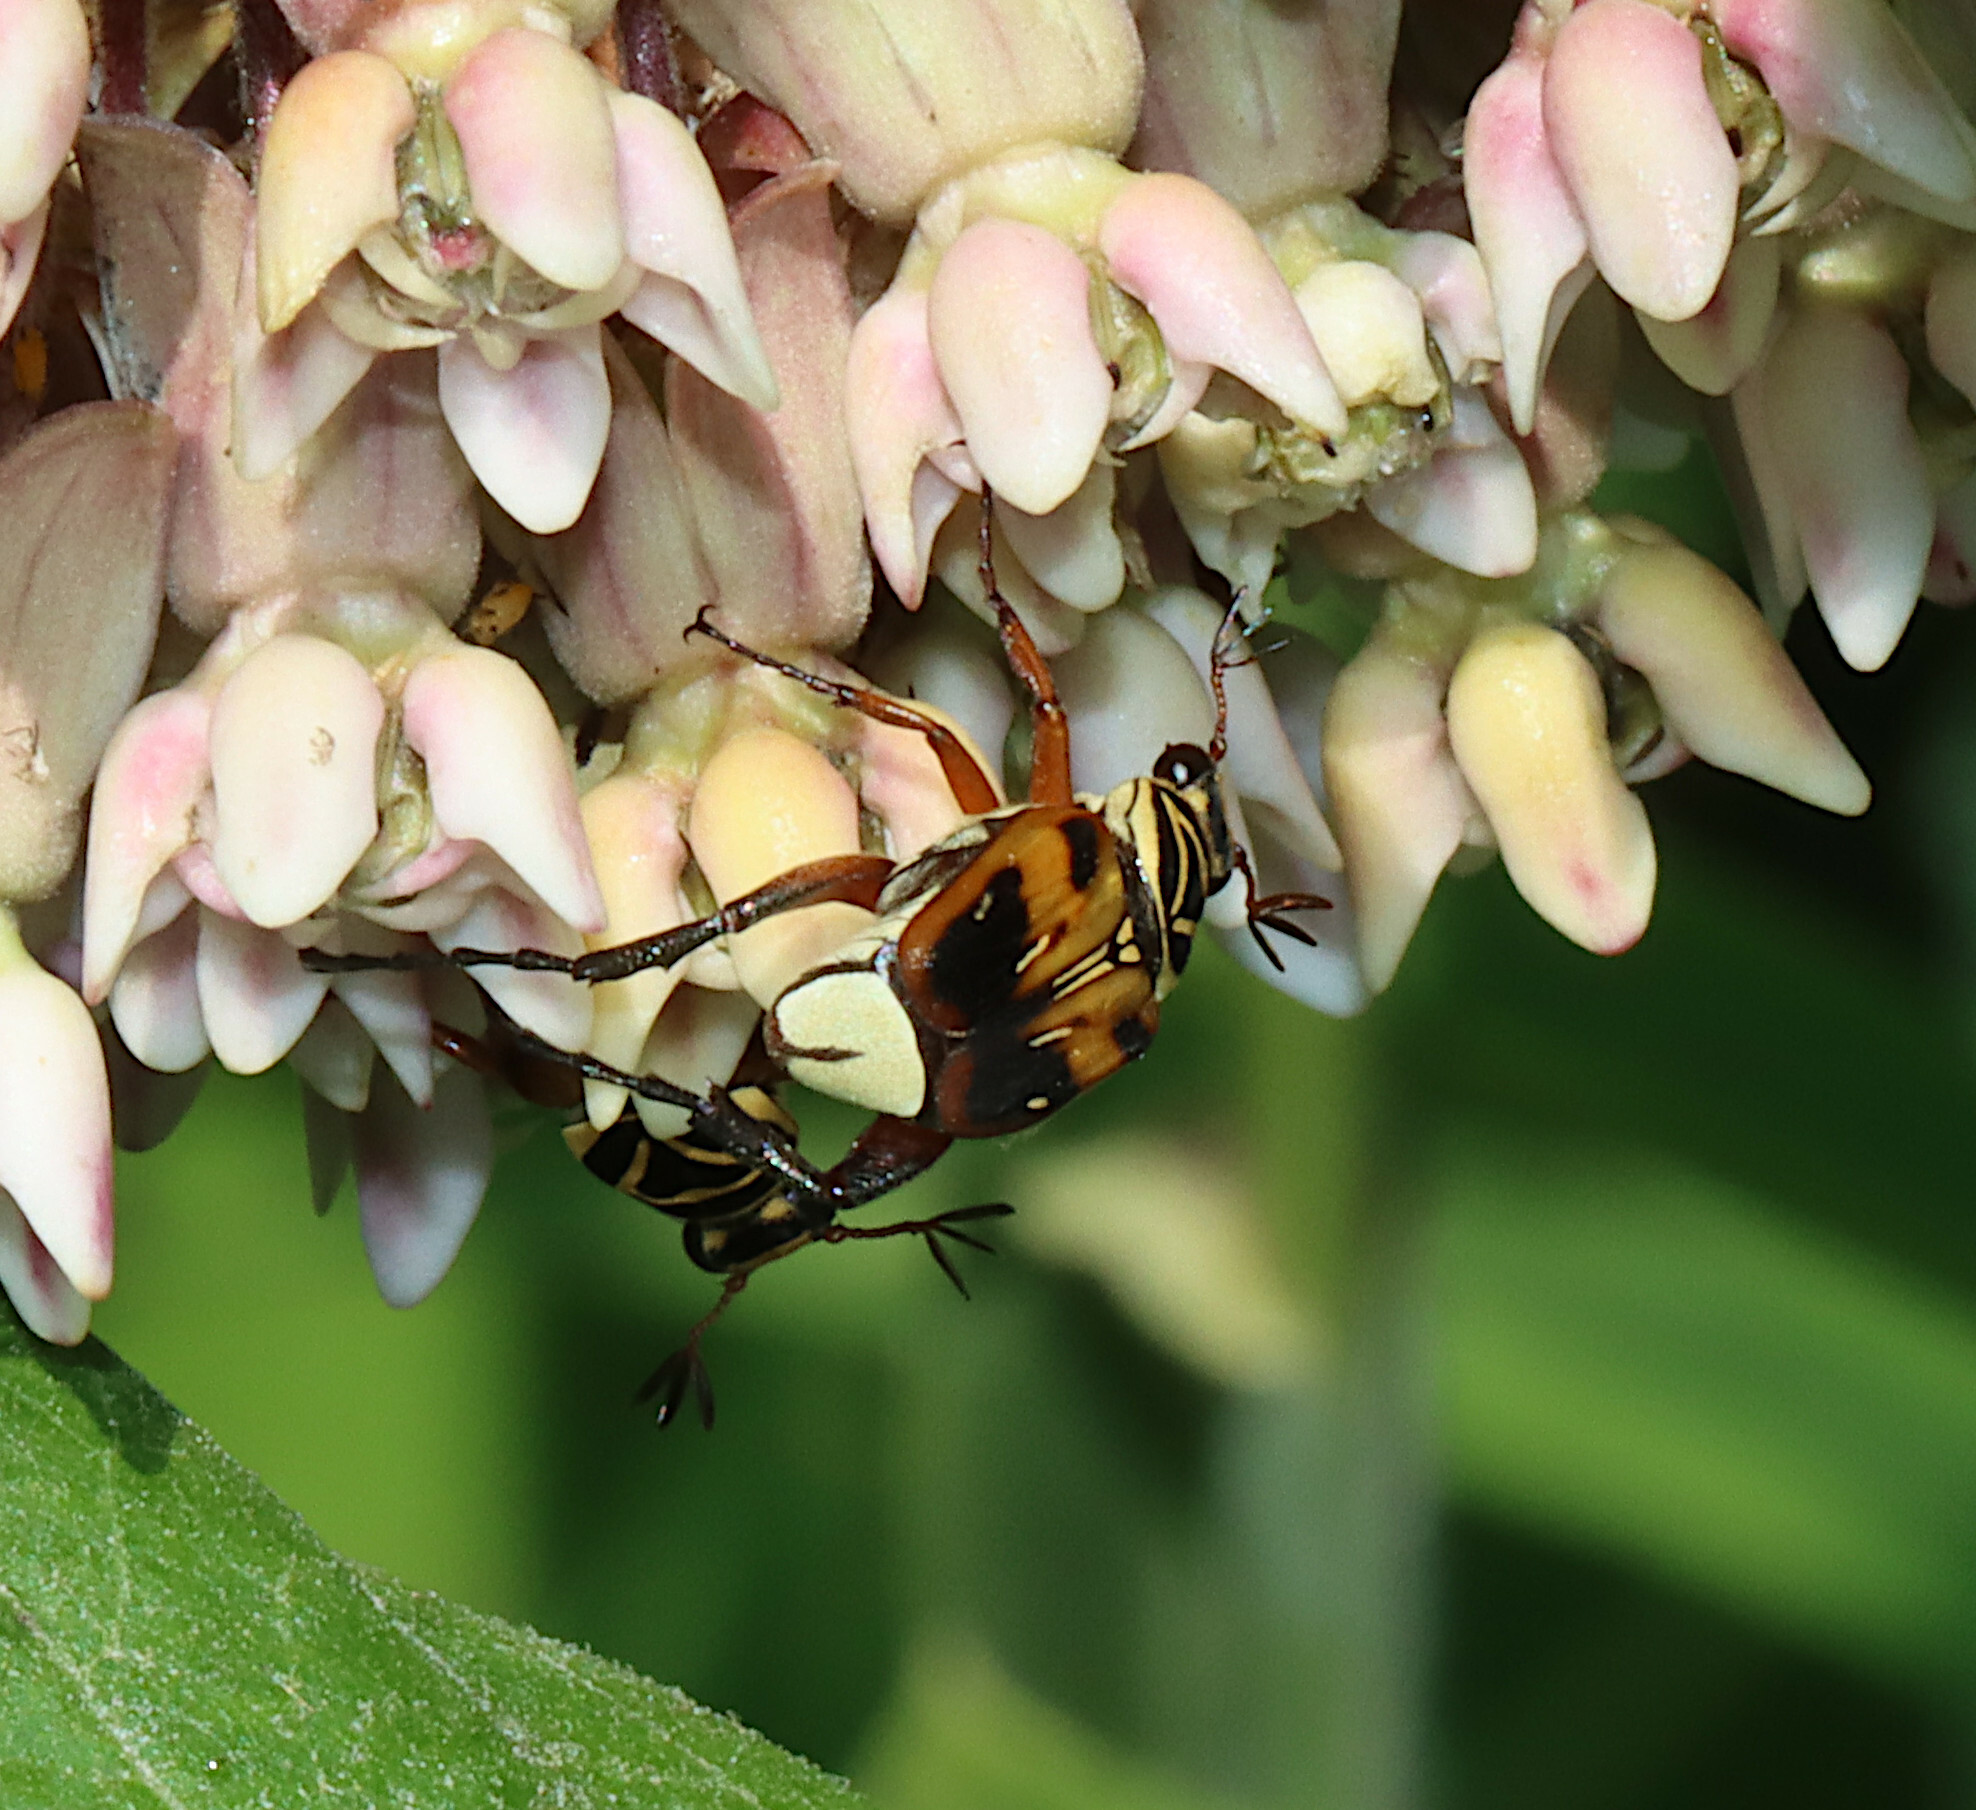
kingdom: Animalia
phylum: Arthropoda
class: Insecta
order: Coleoptera
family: Scarabaeidae
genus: Trigonopeltastes
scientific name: Trigonopeltastes delta
